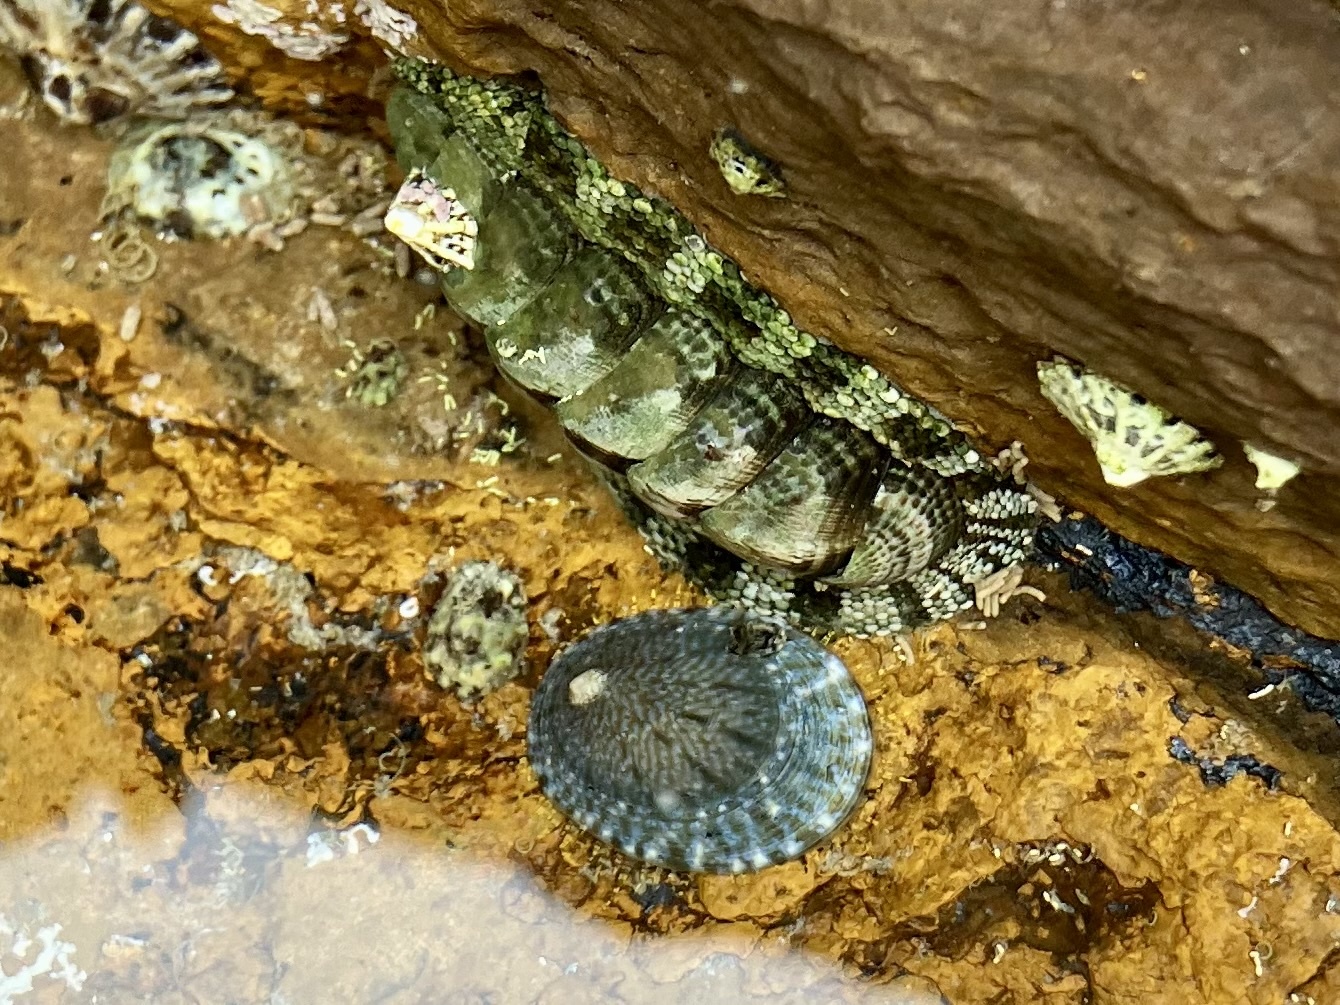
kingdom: Animalia
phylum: Mollusca
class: Polyplacophora
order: Chitonida
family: Chitonidae
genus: Sypharochiton
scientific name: Sypharochiton pelliserpentis
